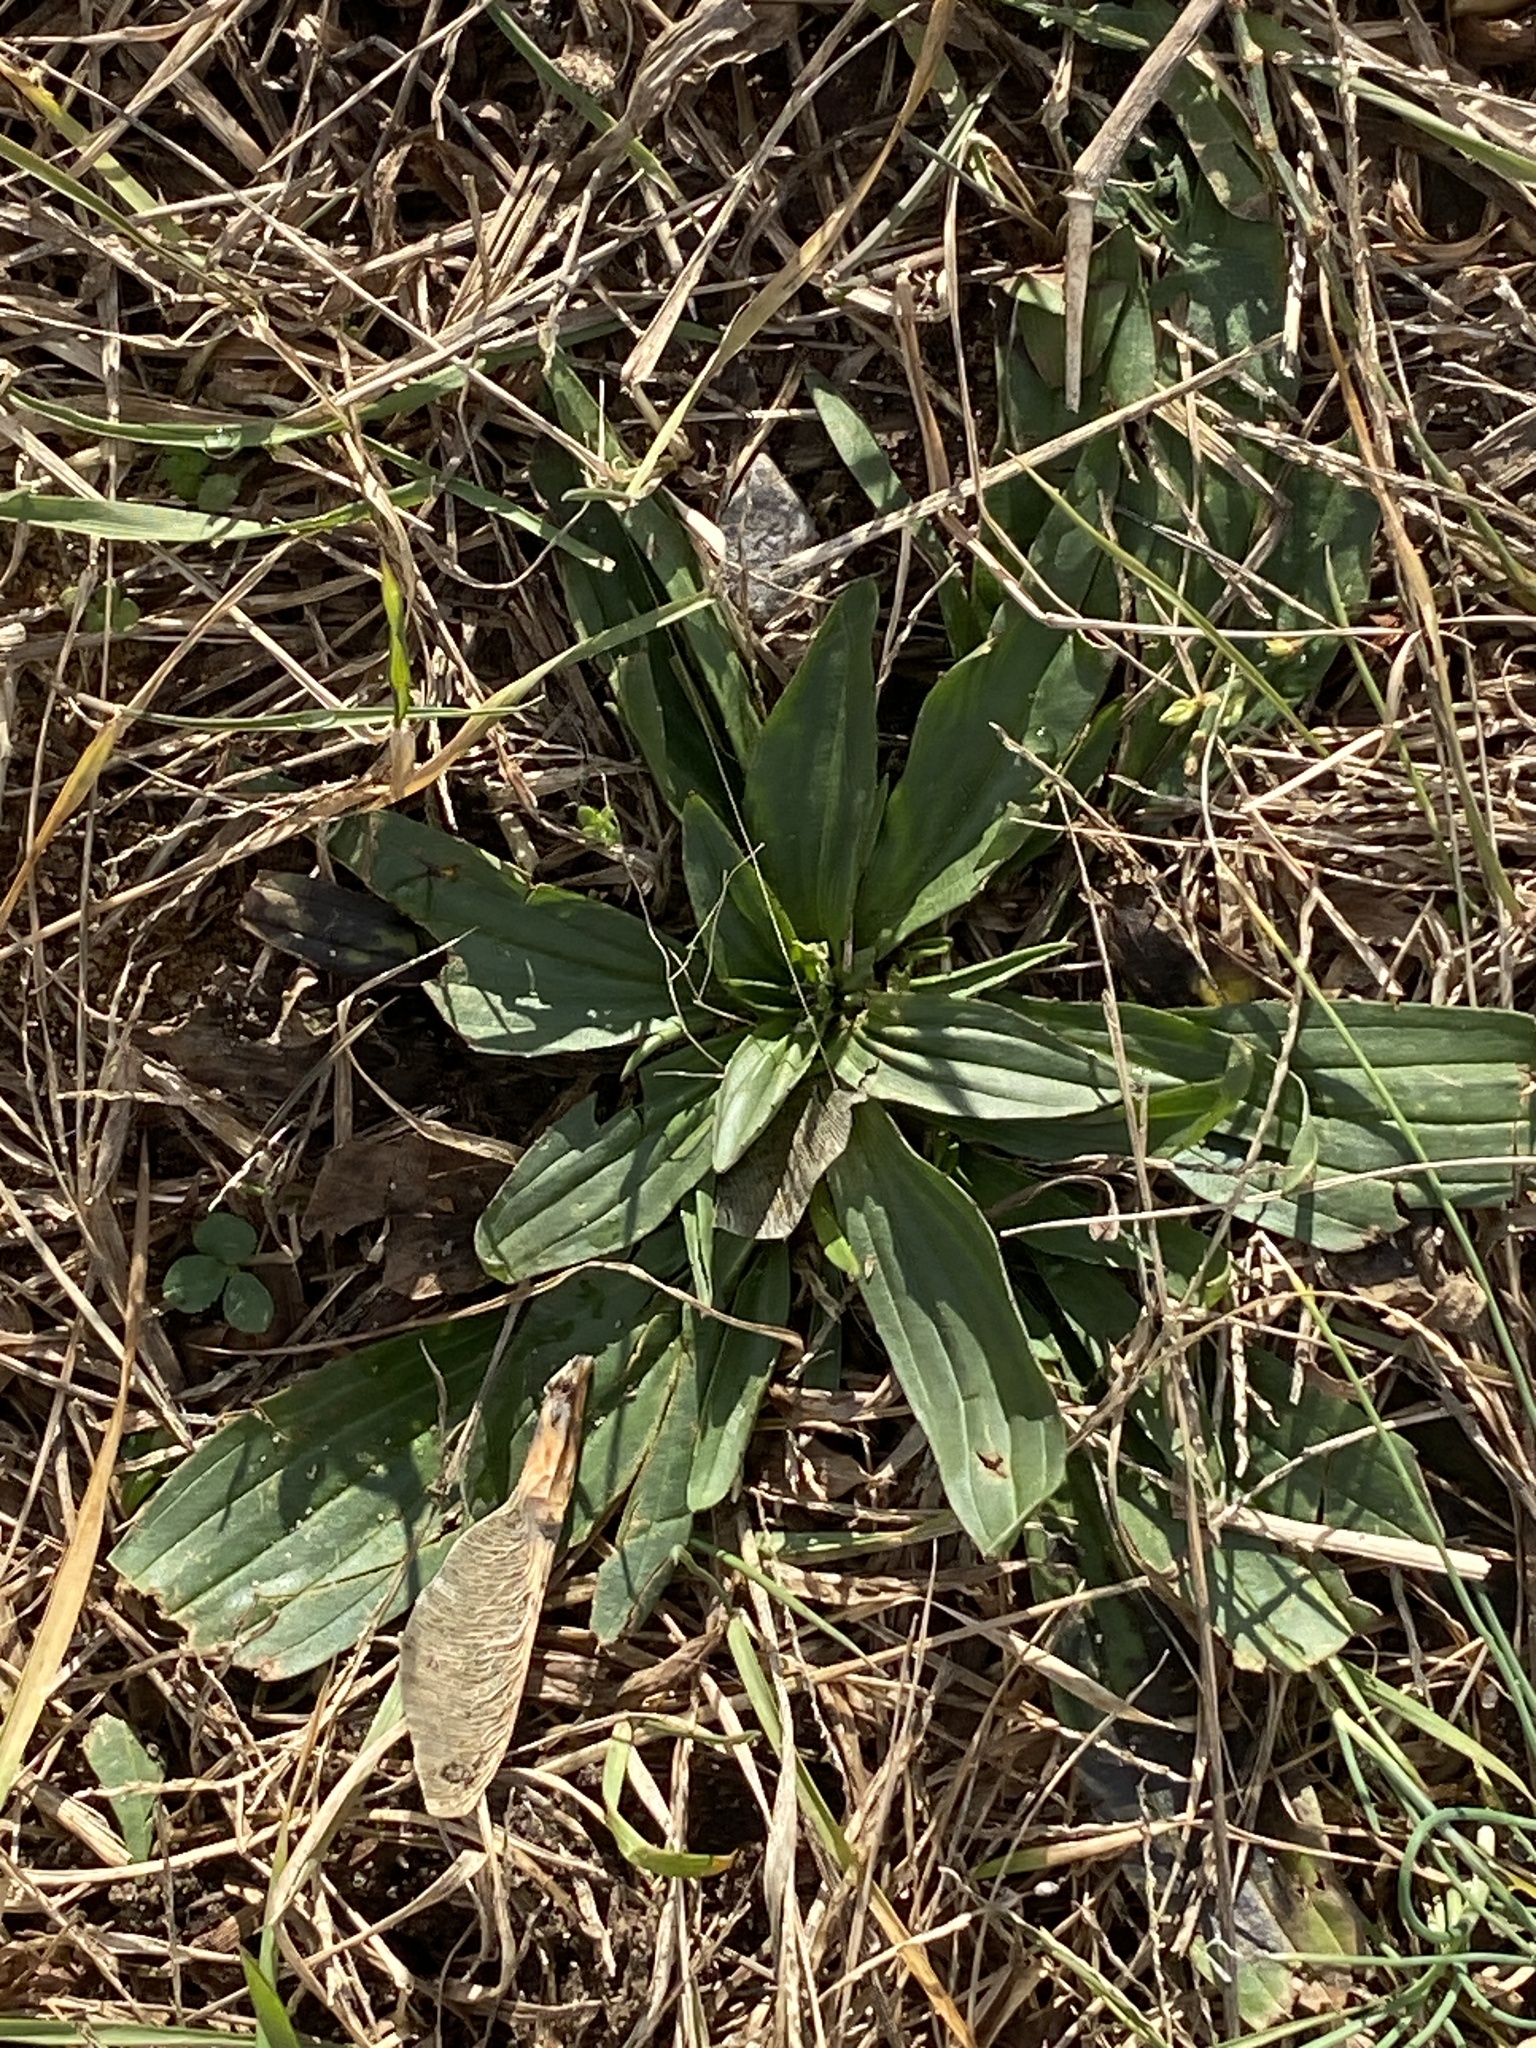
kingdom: Plantae
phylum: Tracheophyta
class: Magnoliopsida
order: Lamiales
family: Plantaginaceae
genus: Plantago
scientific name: Plantago lanceolata
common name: Ribwort plantain
